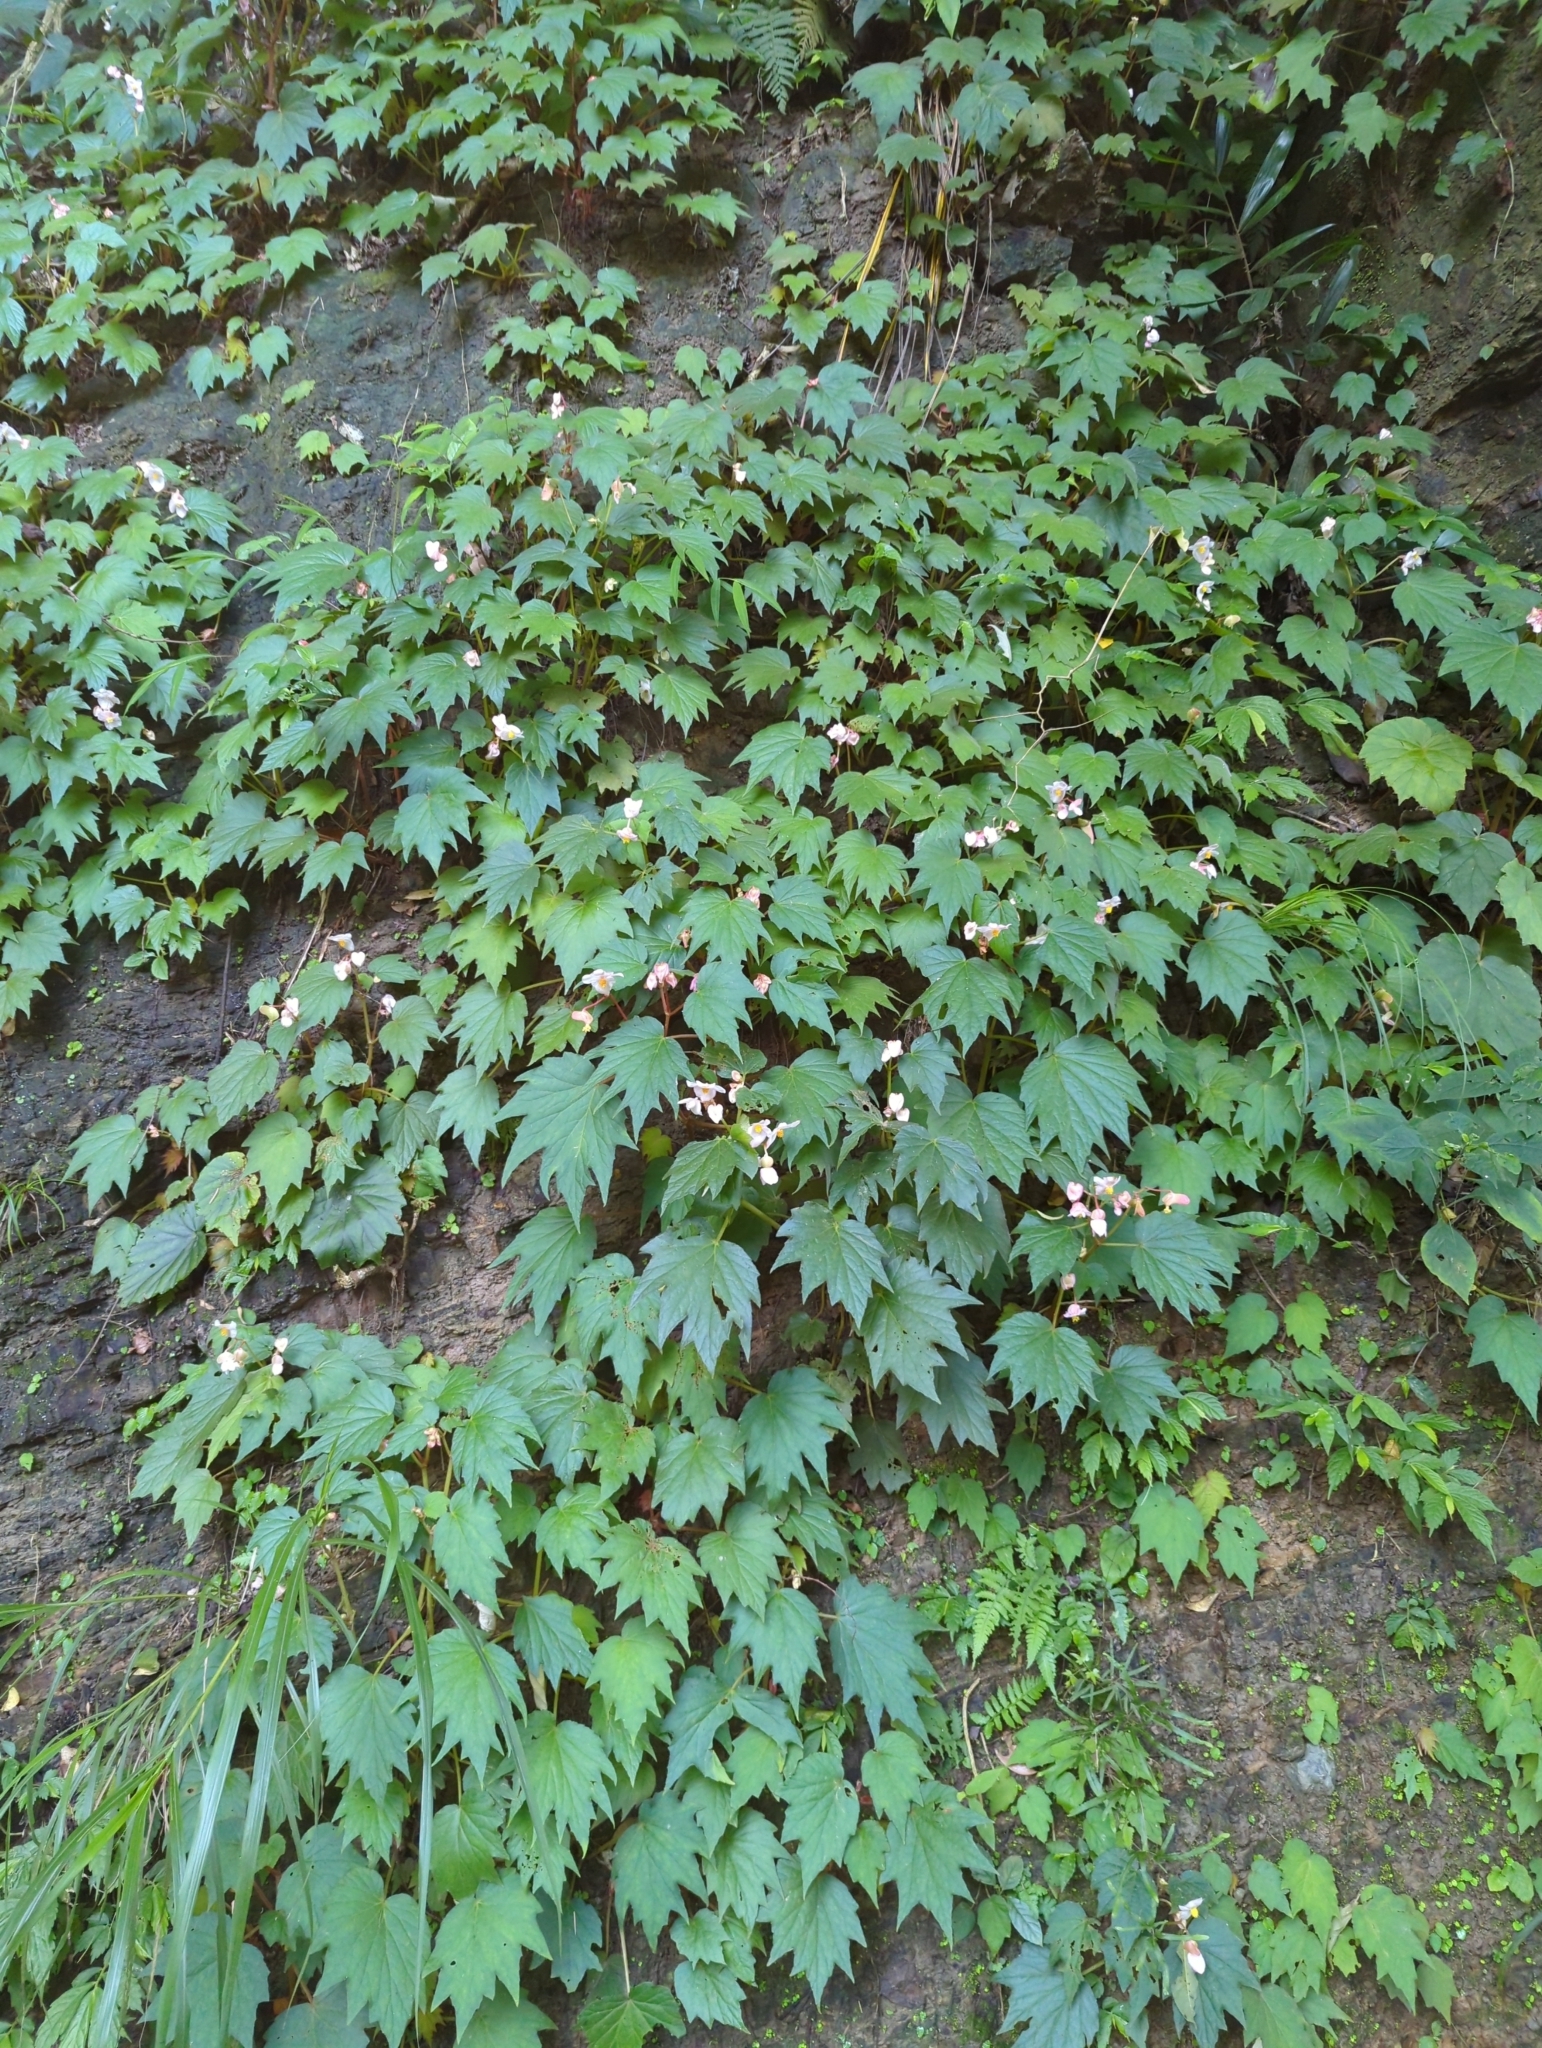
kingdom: Plantae
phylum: Tracheophyta
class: Magnoliopsida
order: Cucurbitales
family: Begoniaceae
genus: Begonia
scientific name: Begonia palmata
